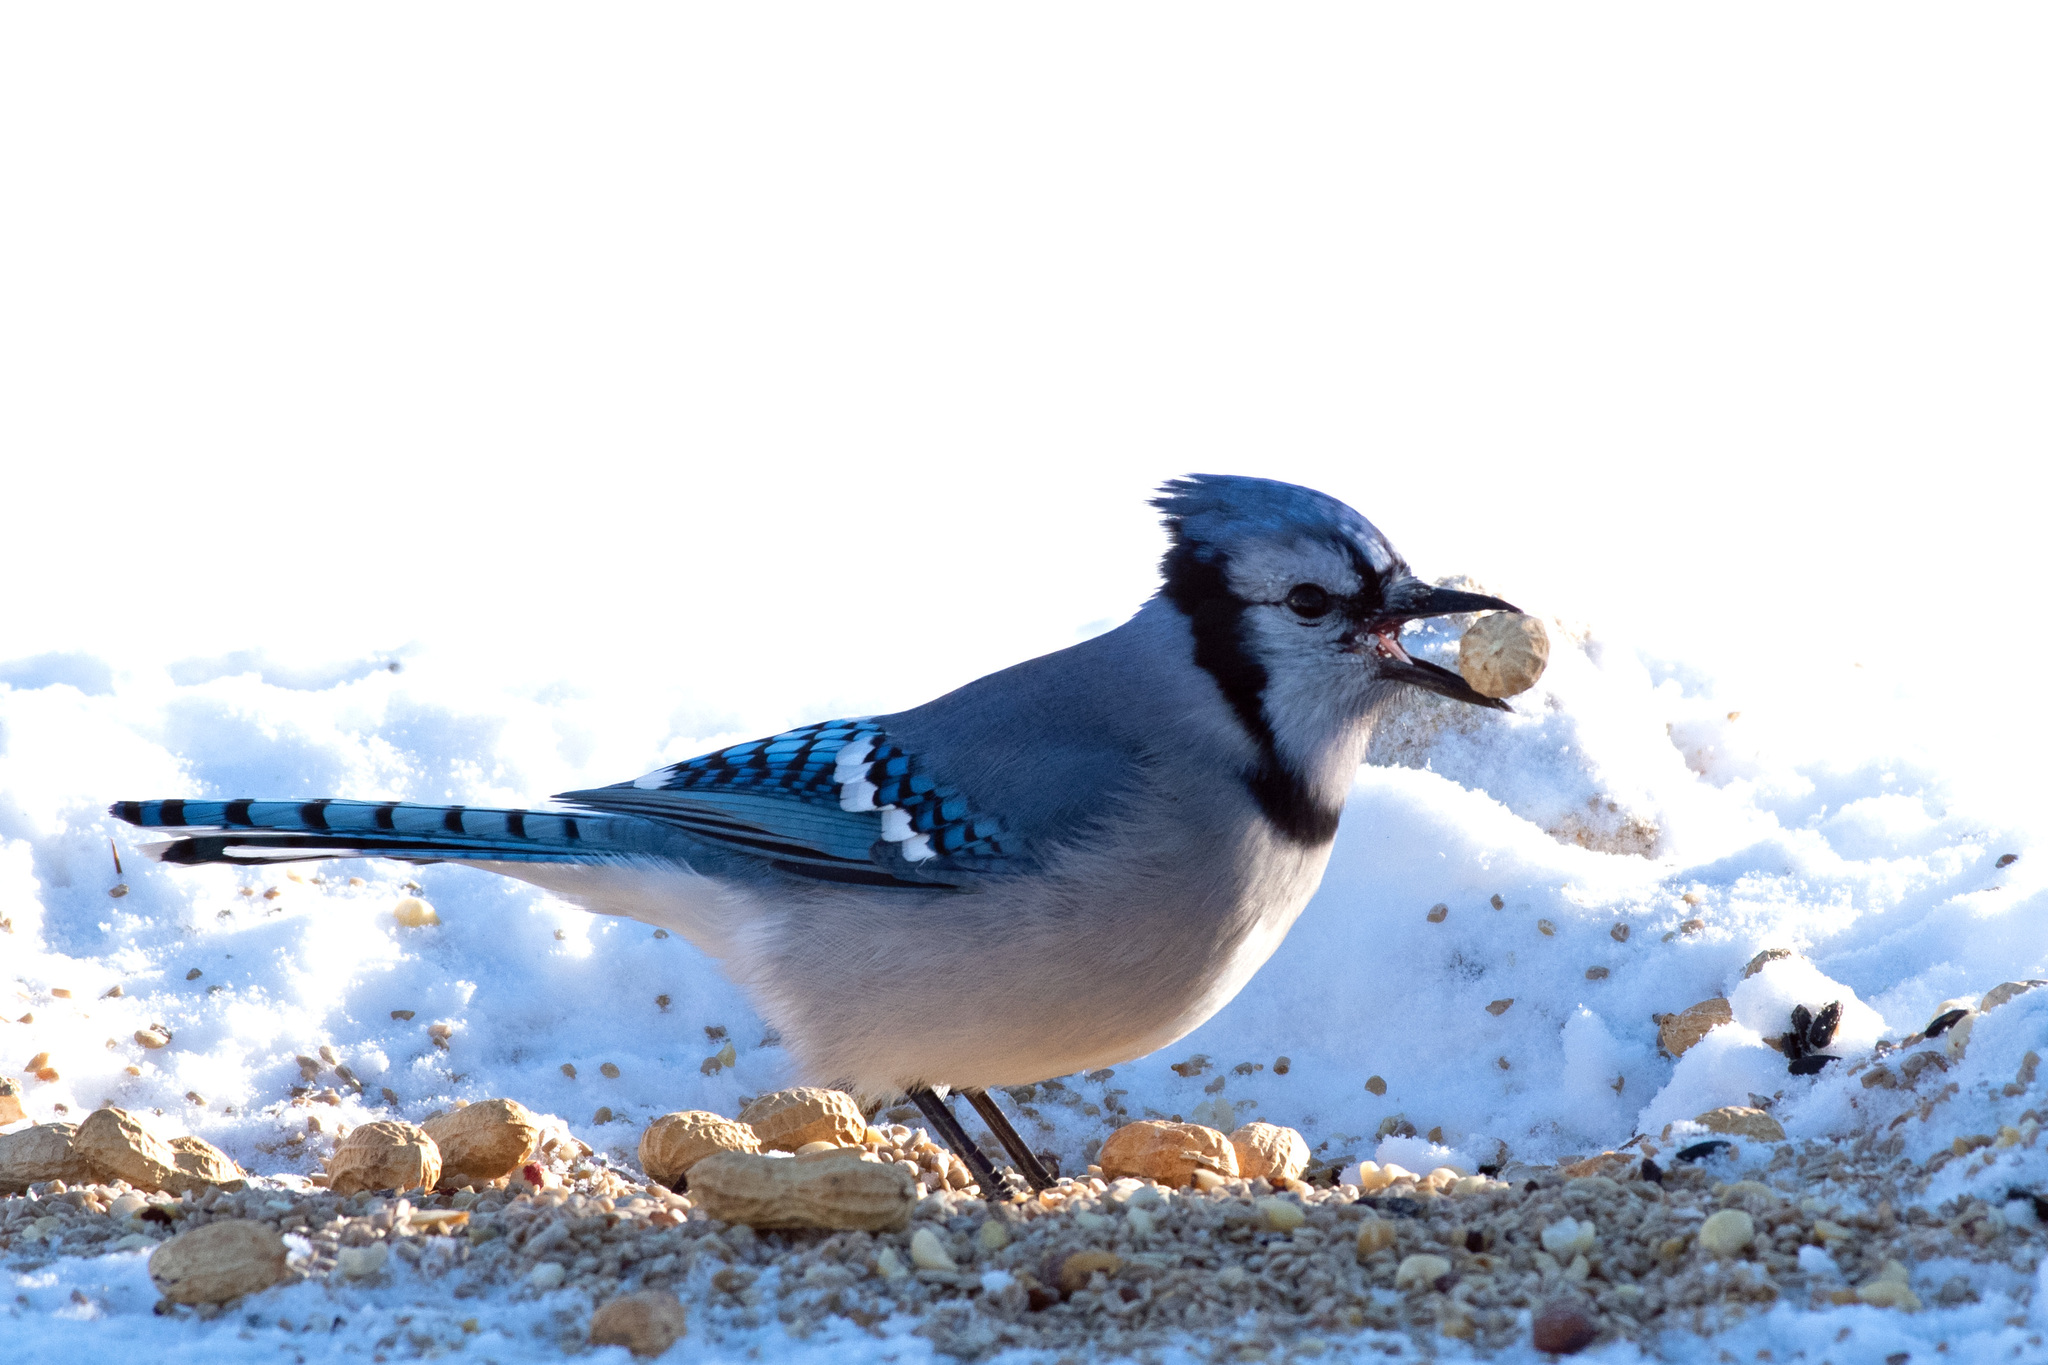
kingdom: Animalia
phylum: Chordata
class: Aves
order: Passeriformes
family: Corvidae
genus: Cyanocitta
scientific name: Cyanocitta cristata
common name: Blue jay
